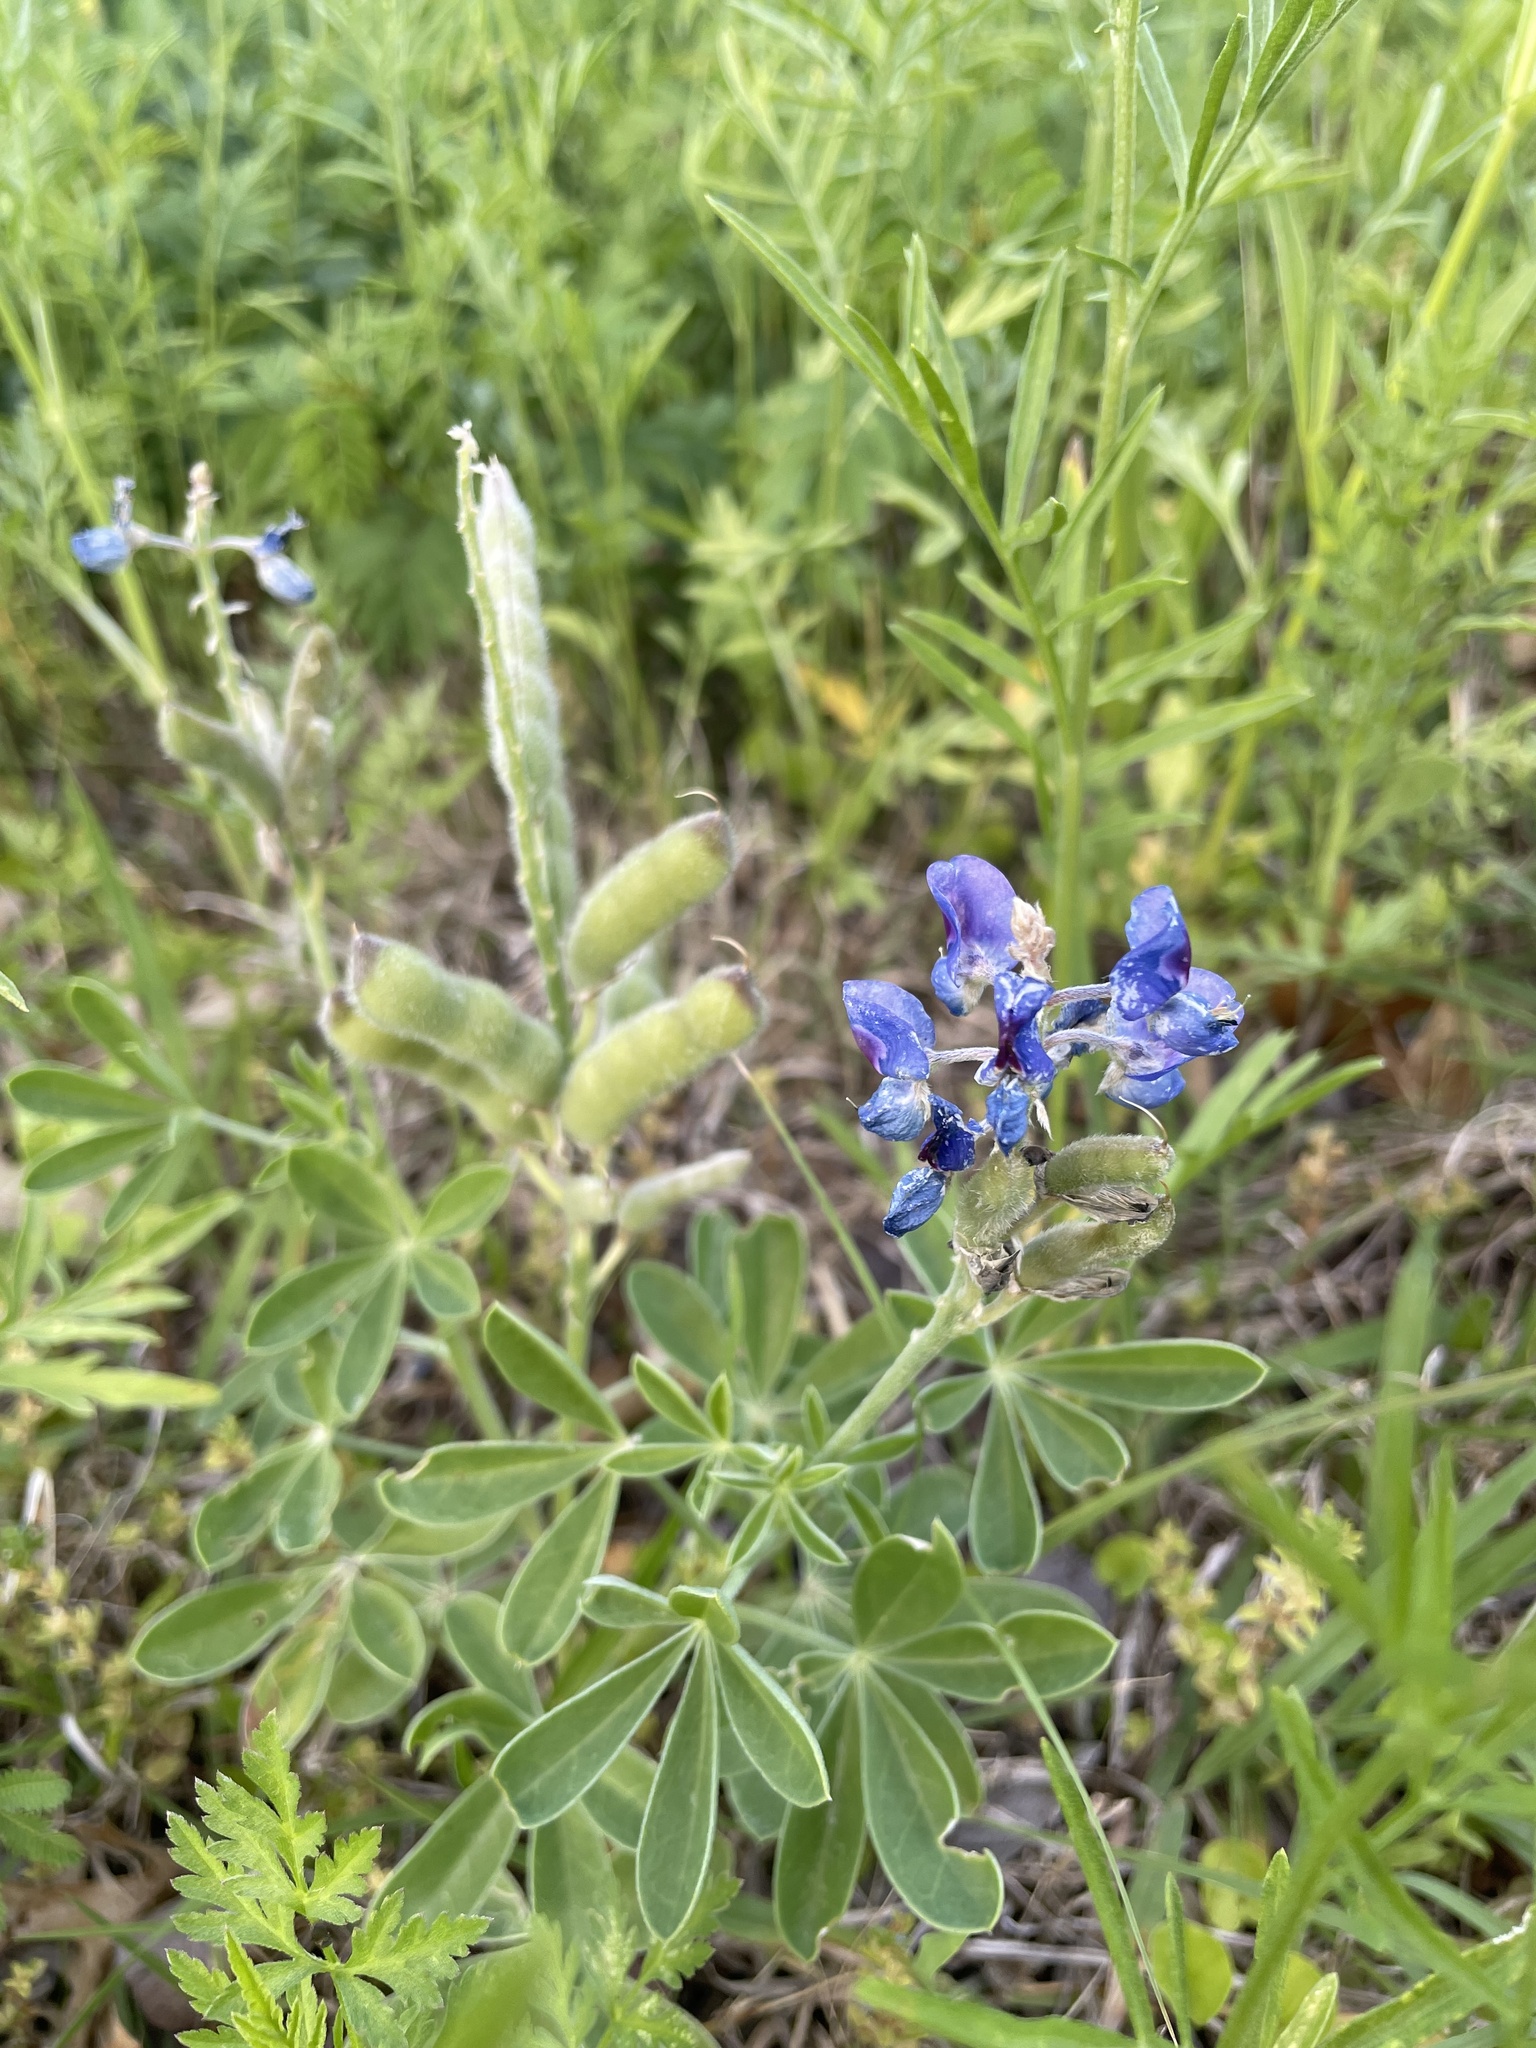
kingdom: Plantae
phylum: Tracheophyta
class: Magnoliopsida
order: Fabales
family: Fabaceae
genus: Lupinus
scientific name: Lupinus texensis
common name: Texas bluebonnet
